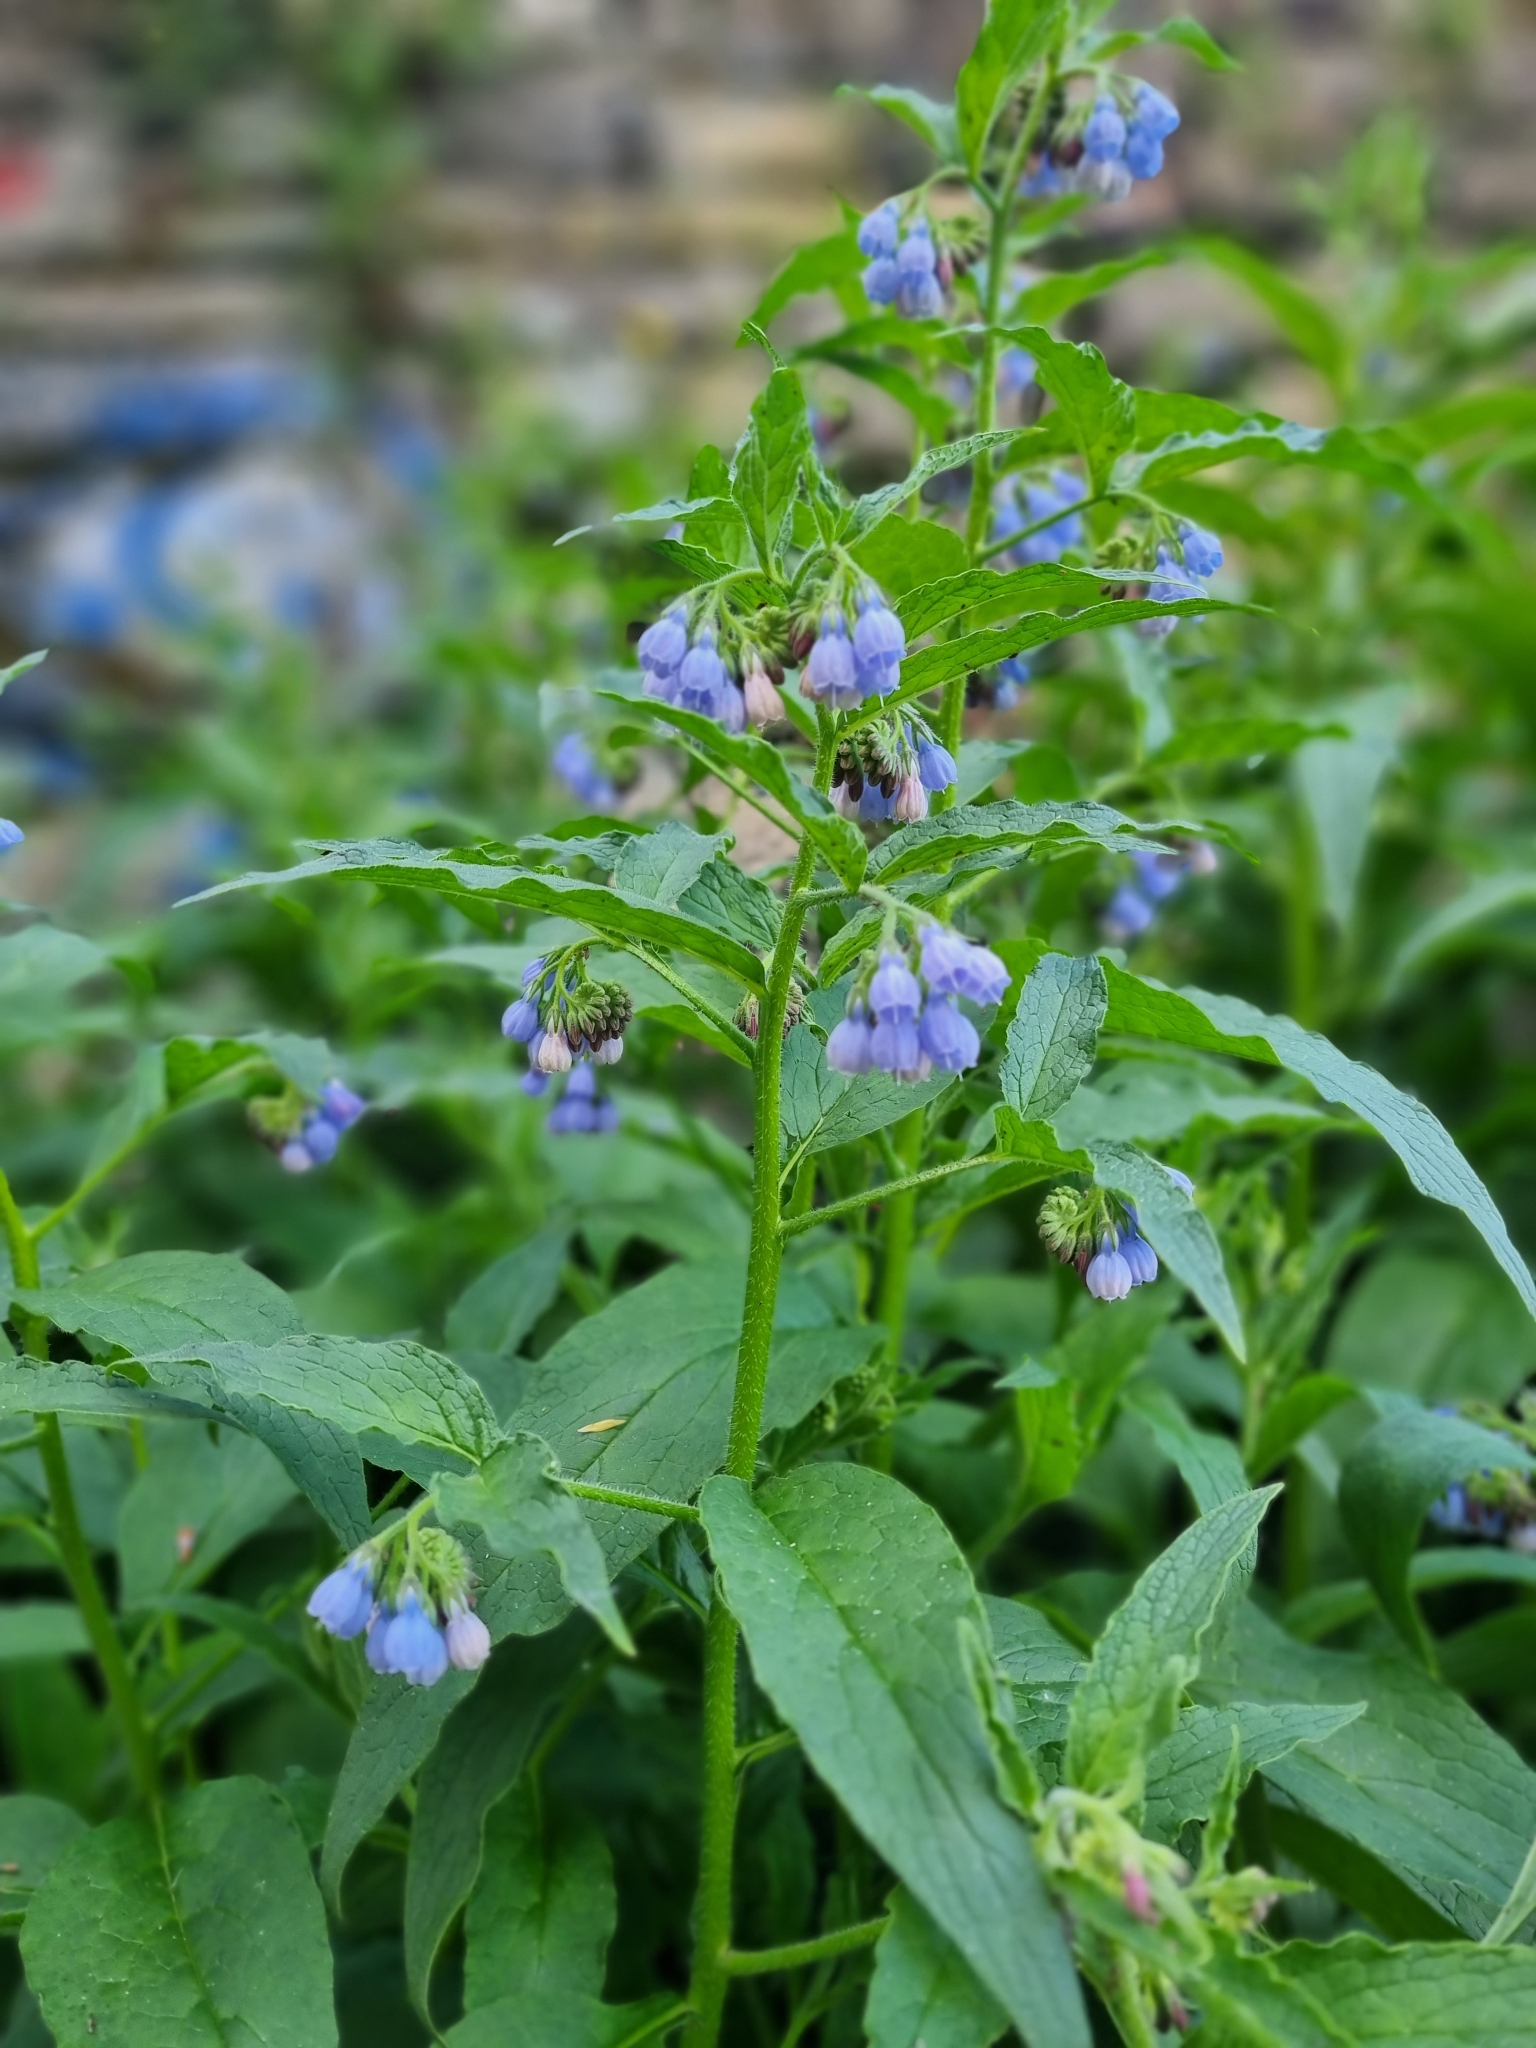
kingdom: Plantae
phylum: Tracheophyta
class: Magnoliopsida
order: Boraginales
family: Boraginaceae
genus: Symphytum
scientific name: Symphytum uplandicum
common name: Russian comfrey
